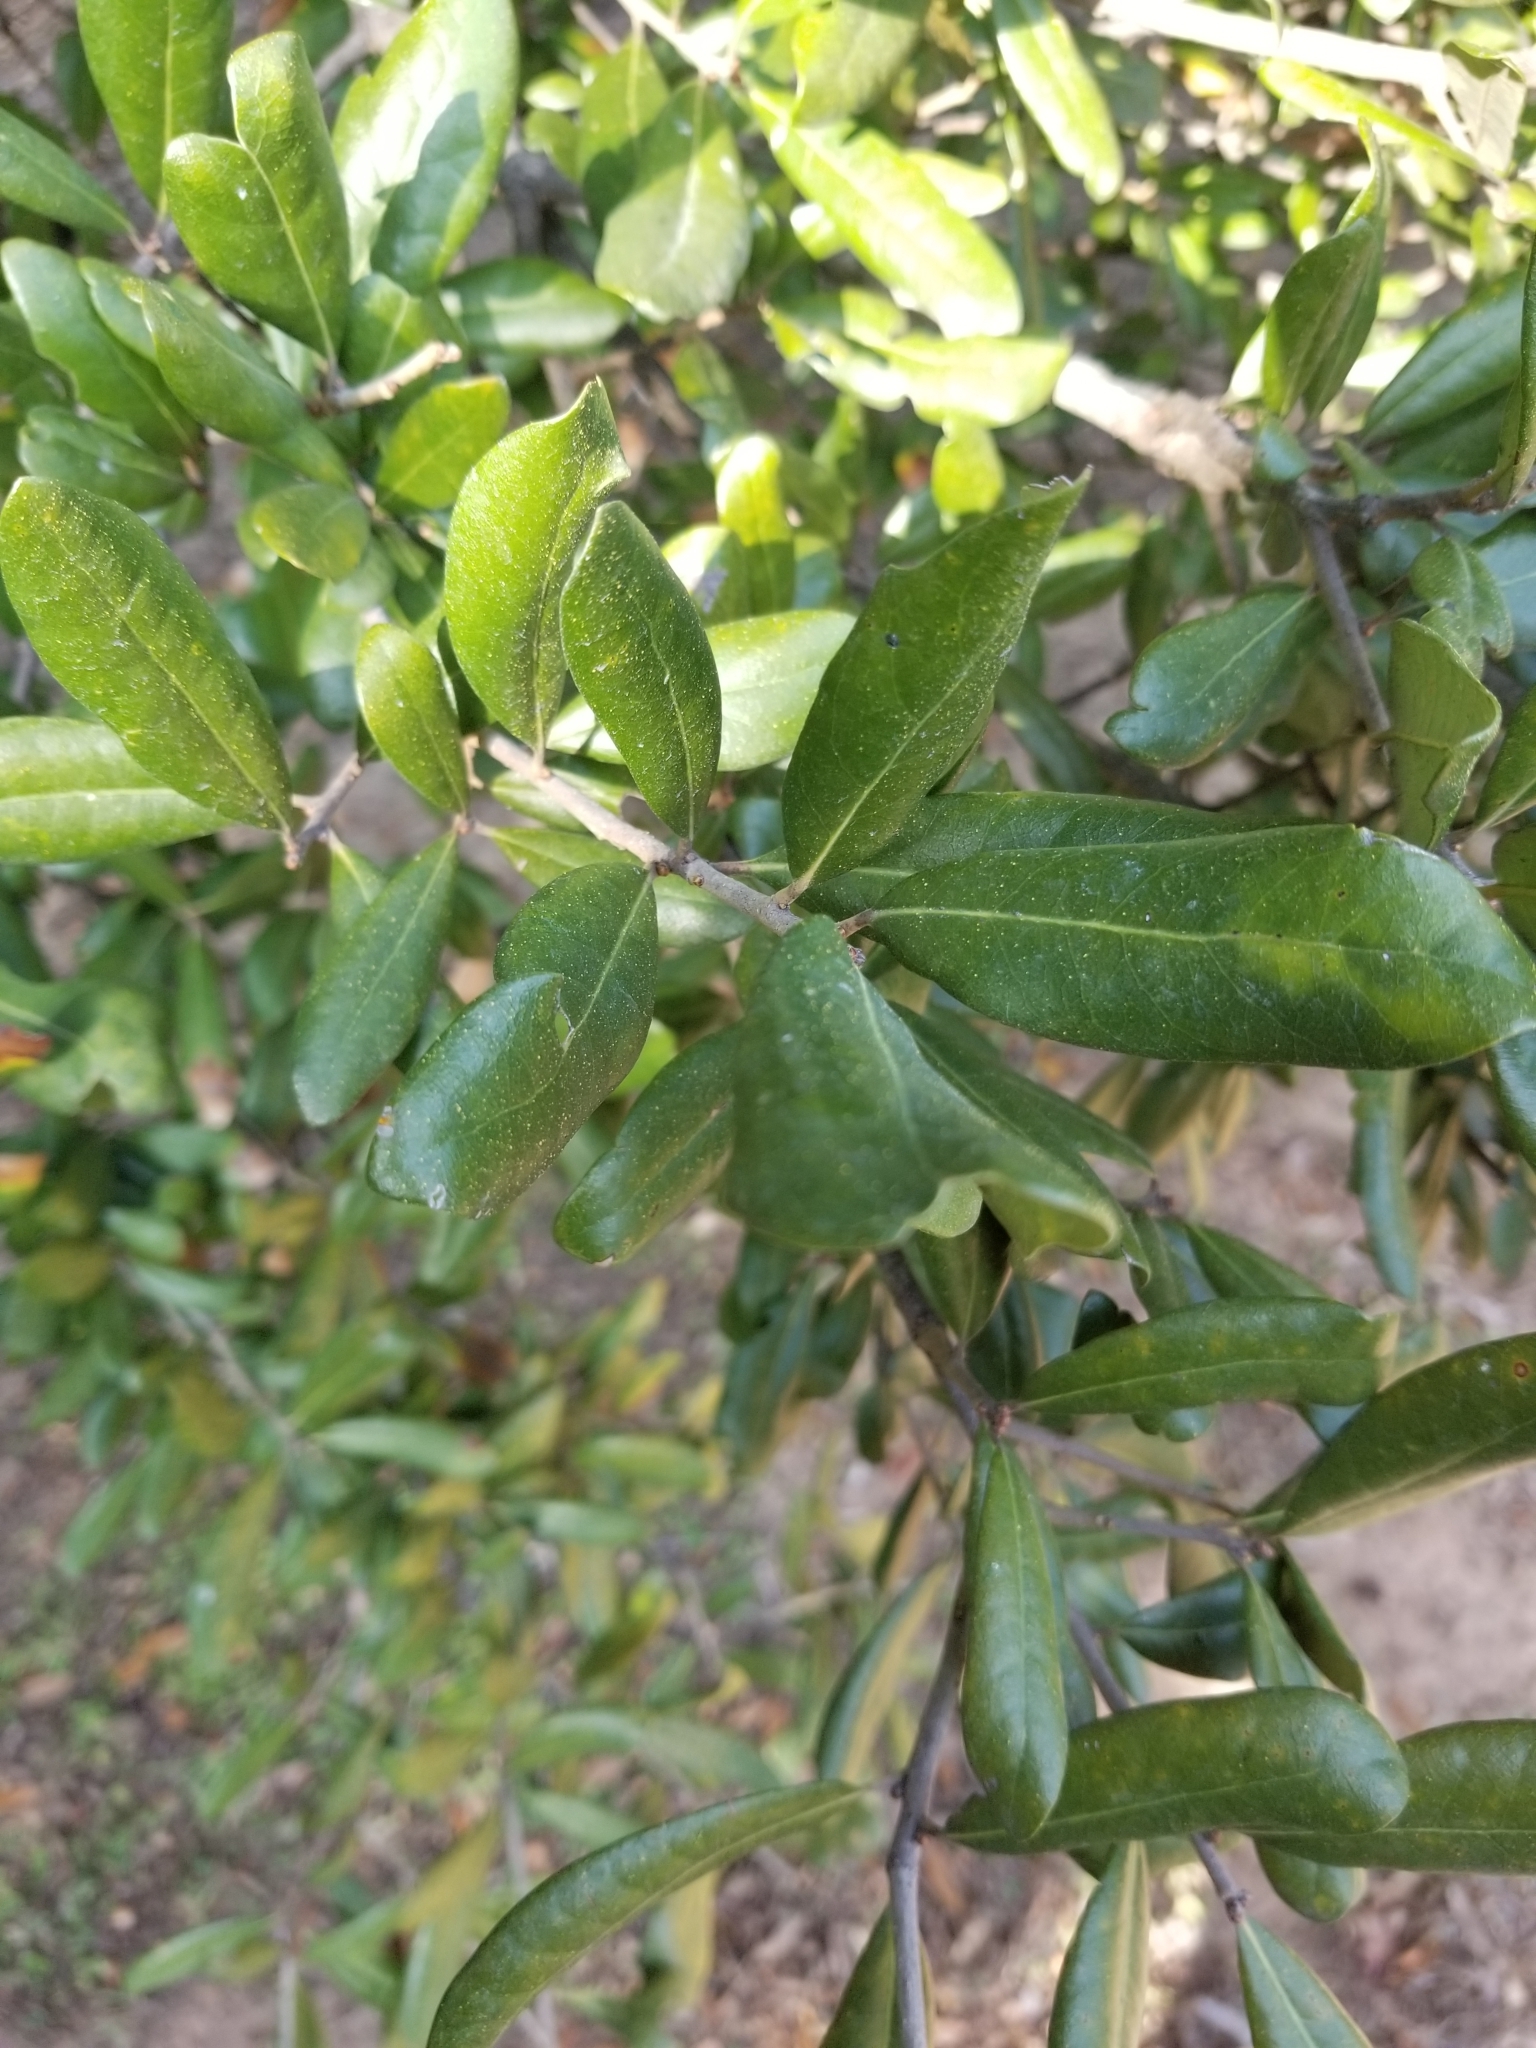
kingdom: Plantae
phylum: Tracheophyta
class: Magnoliopsida
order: Fagales
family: Fagaceae
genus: Quercus
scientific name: Quercus virginiana
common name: Southern live oak
